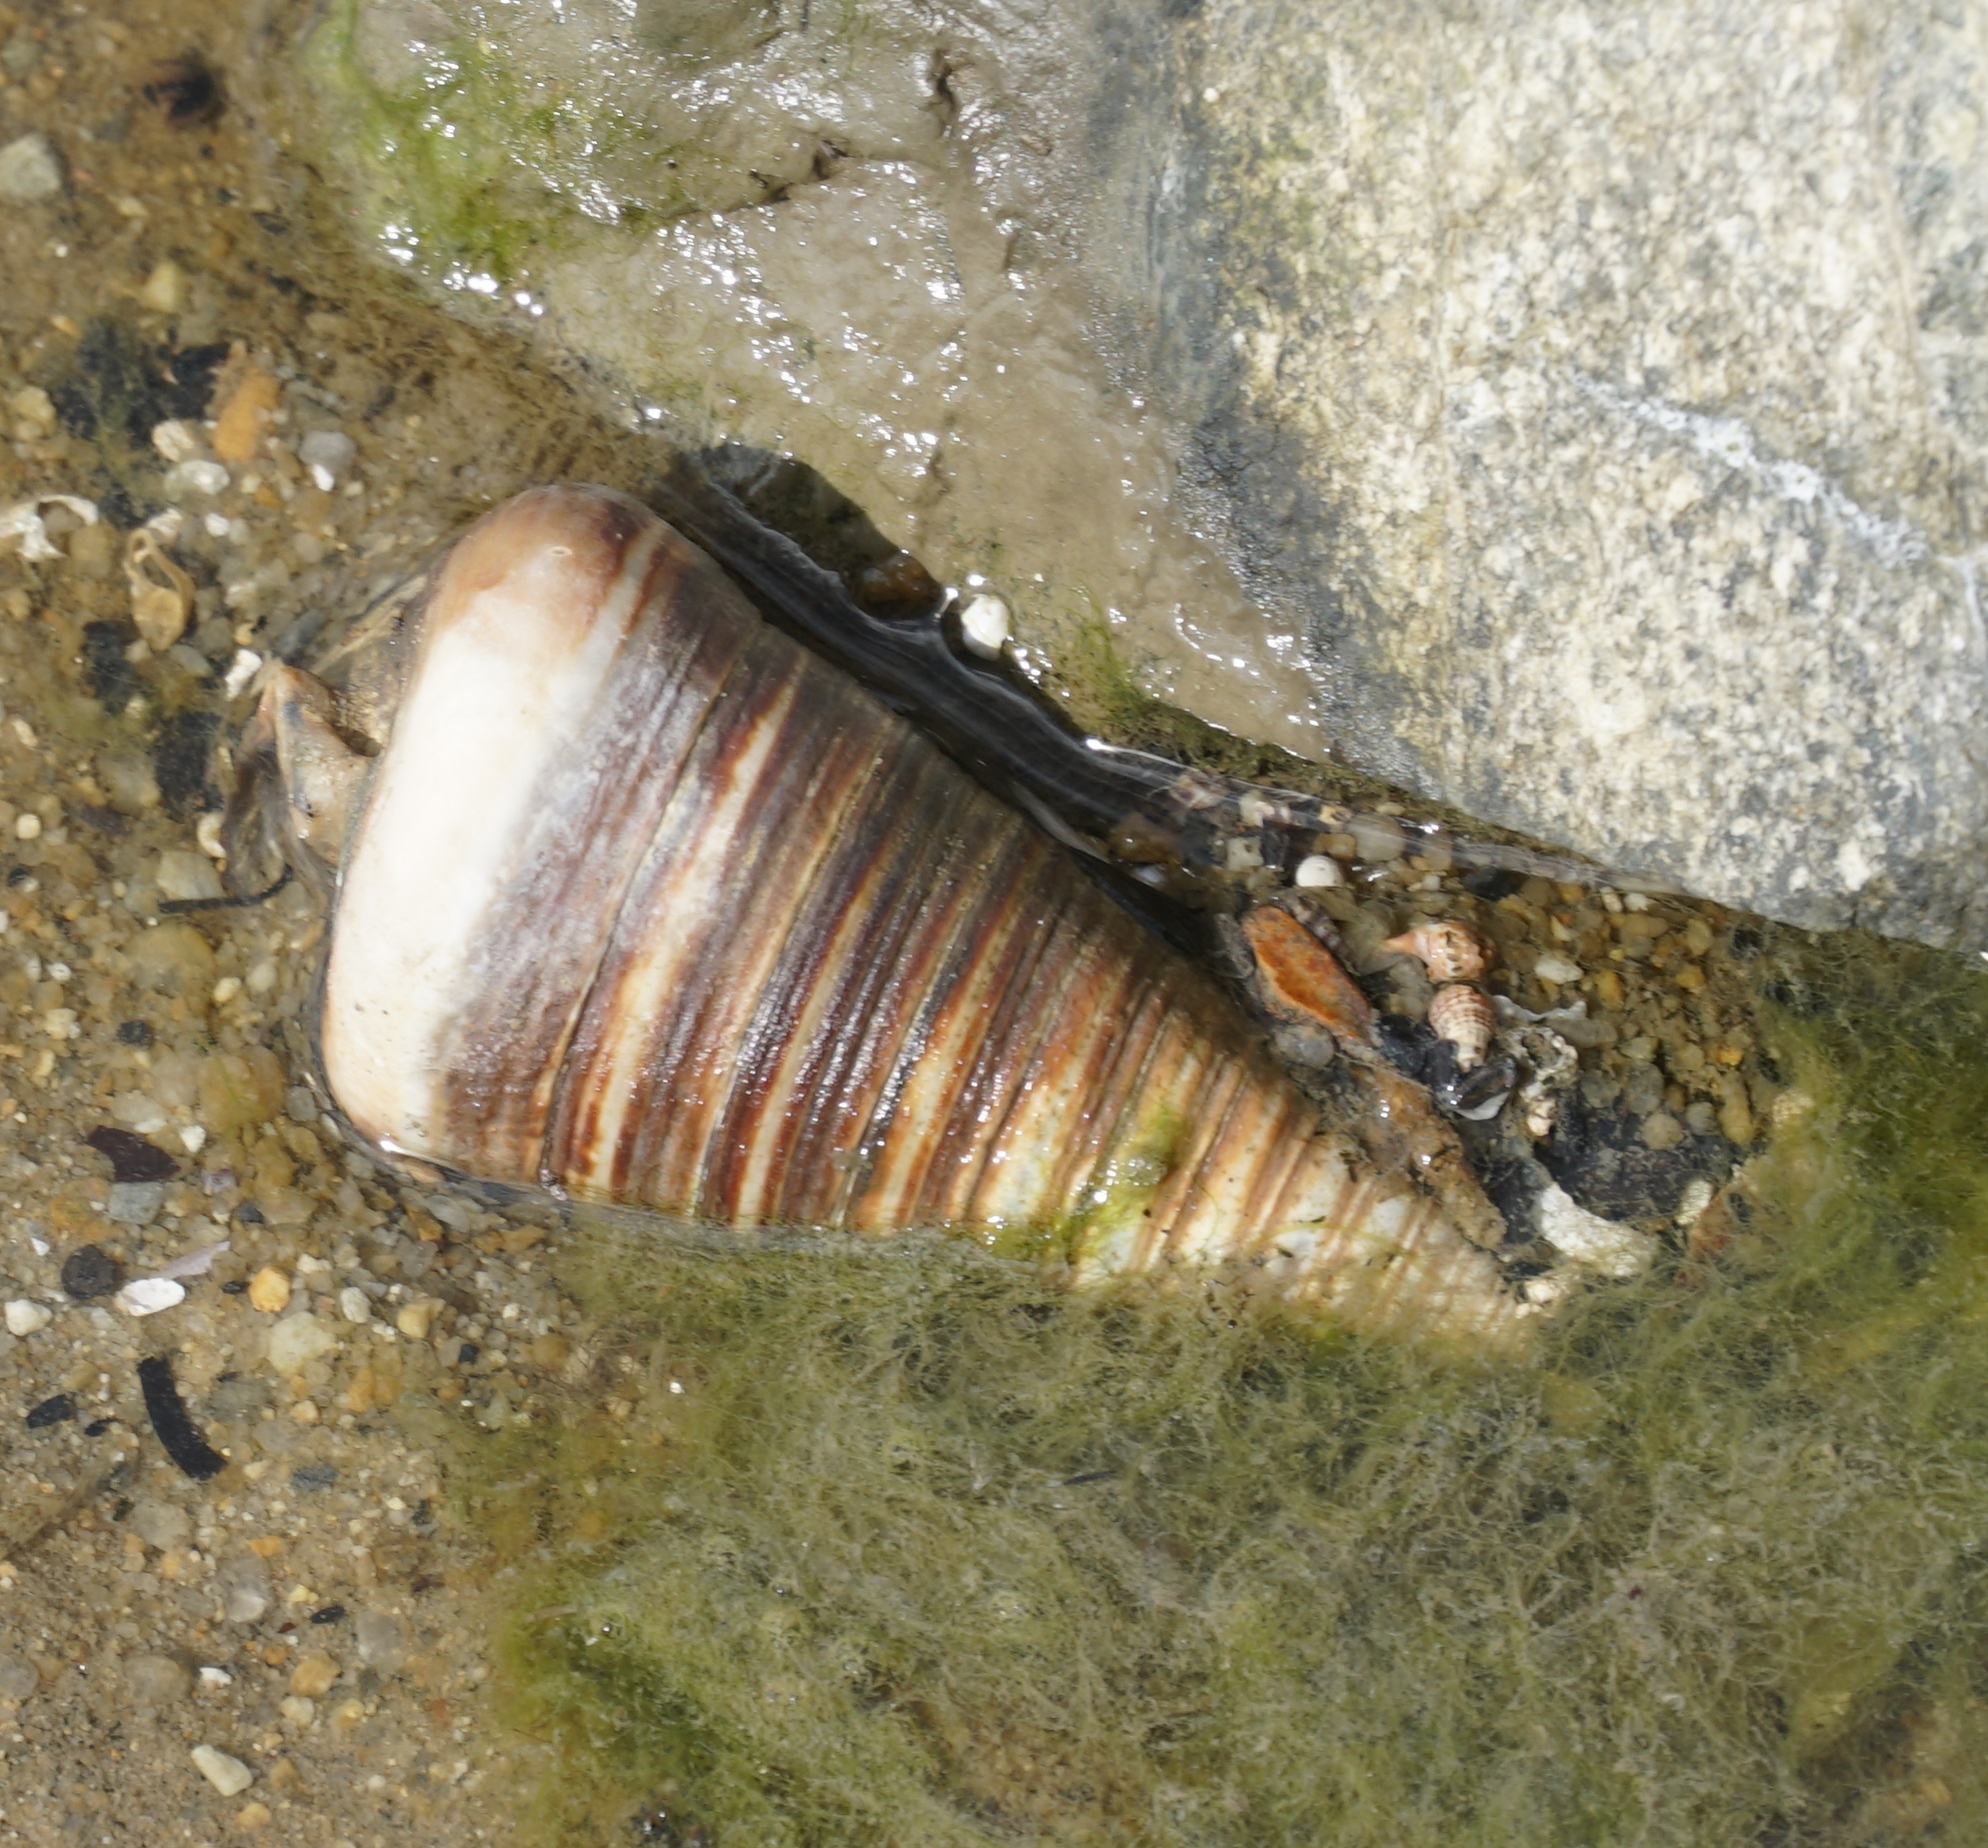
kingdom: Animalia
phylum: Mollusca
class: Gastropoda
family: Potamididae
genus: Telescopium
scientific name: Telescopium telescopium
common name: Telescope creeper
